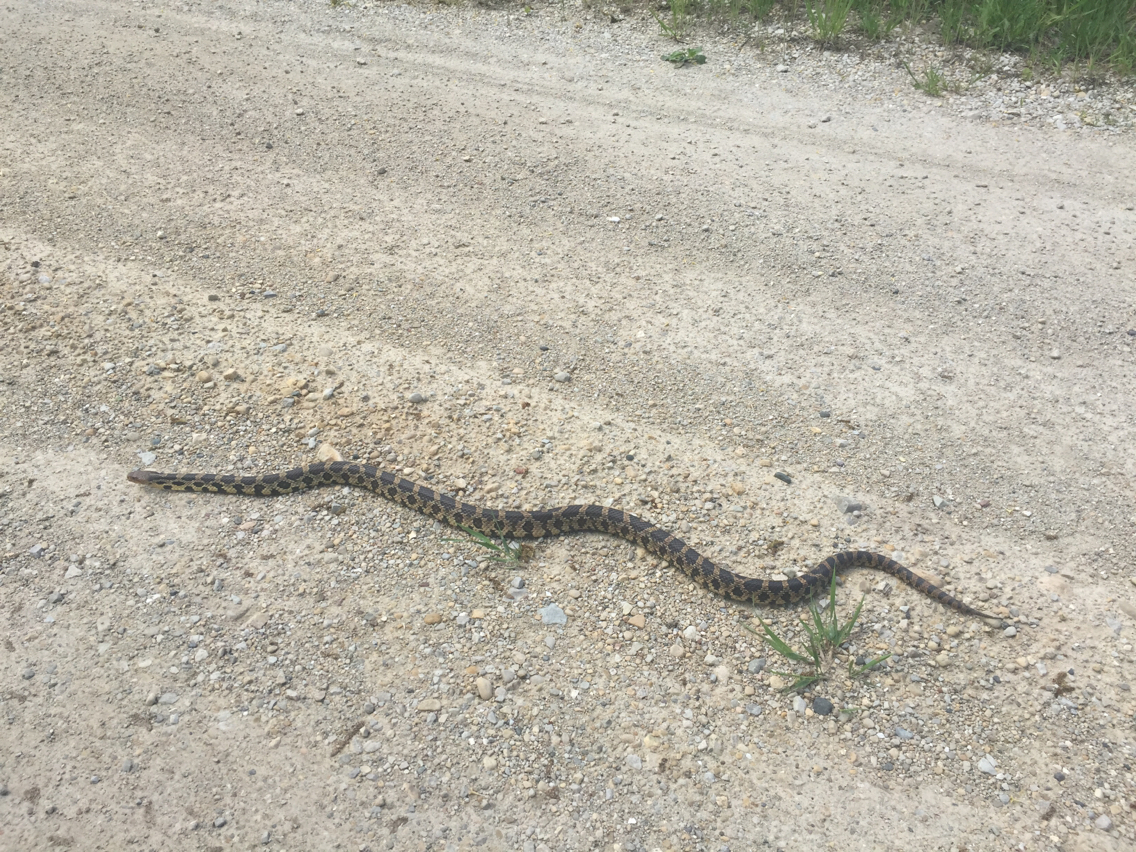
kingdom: Animalia
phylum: Chordata
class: Squamata
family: Colubridae
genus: Pantherophis
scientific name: Pantherophis vulpinus
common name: Eastern fox snake
